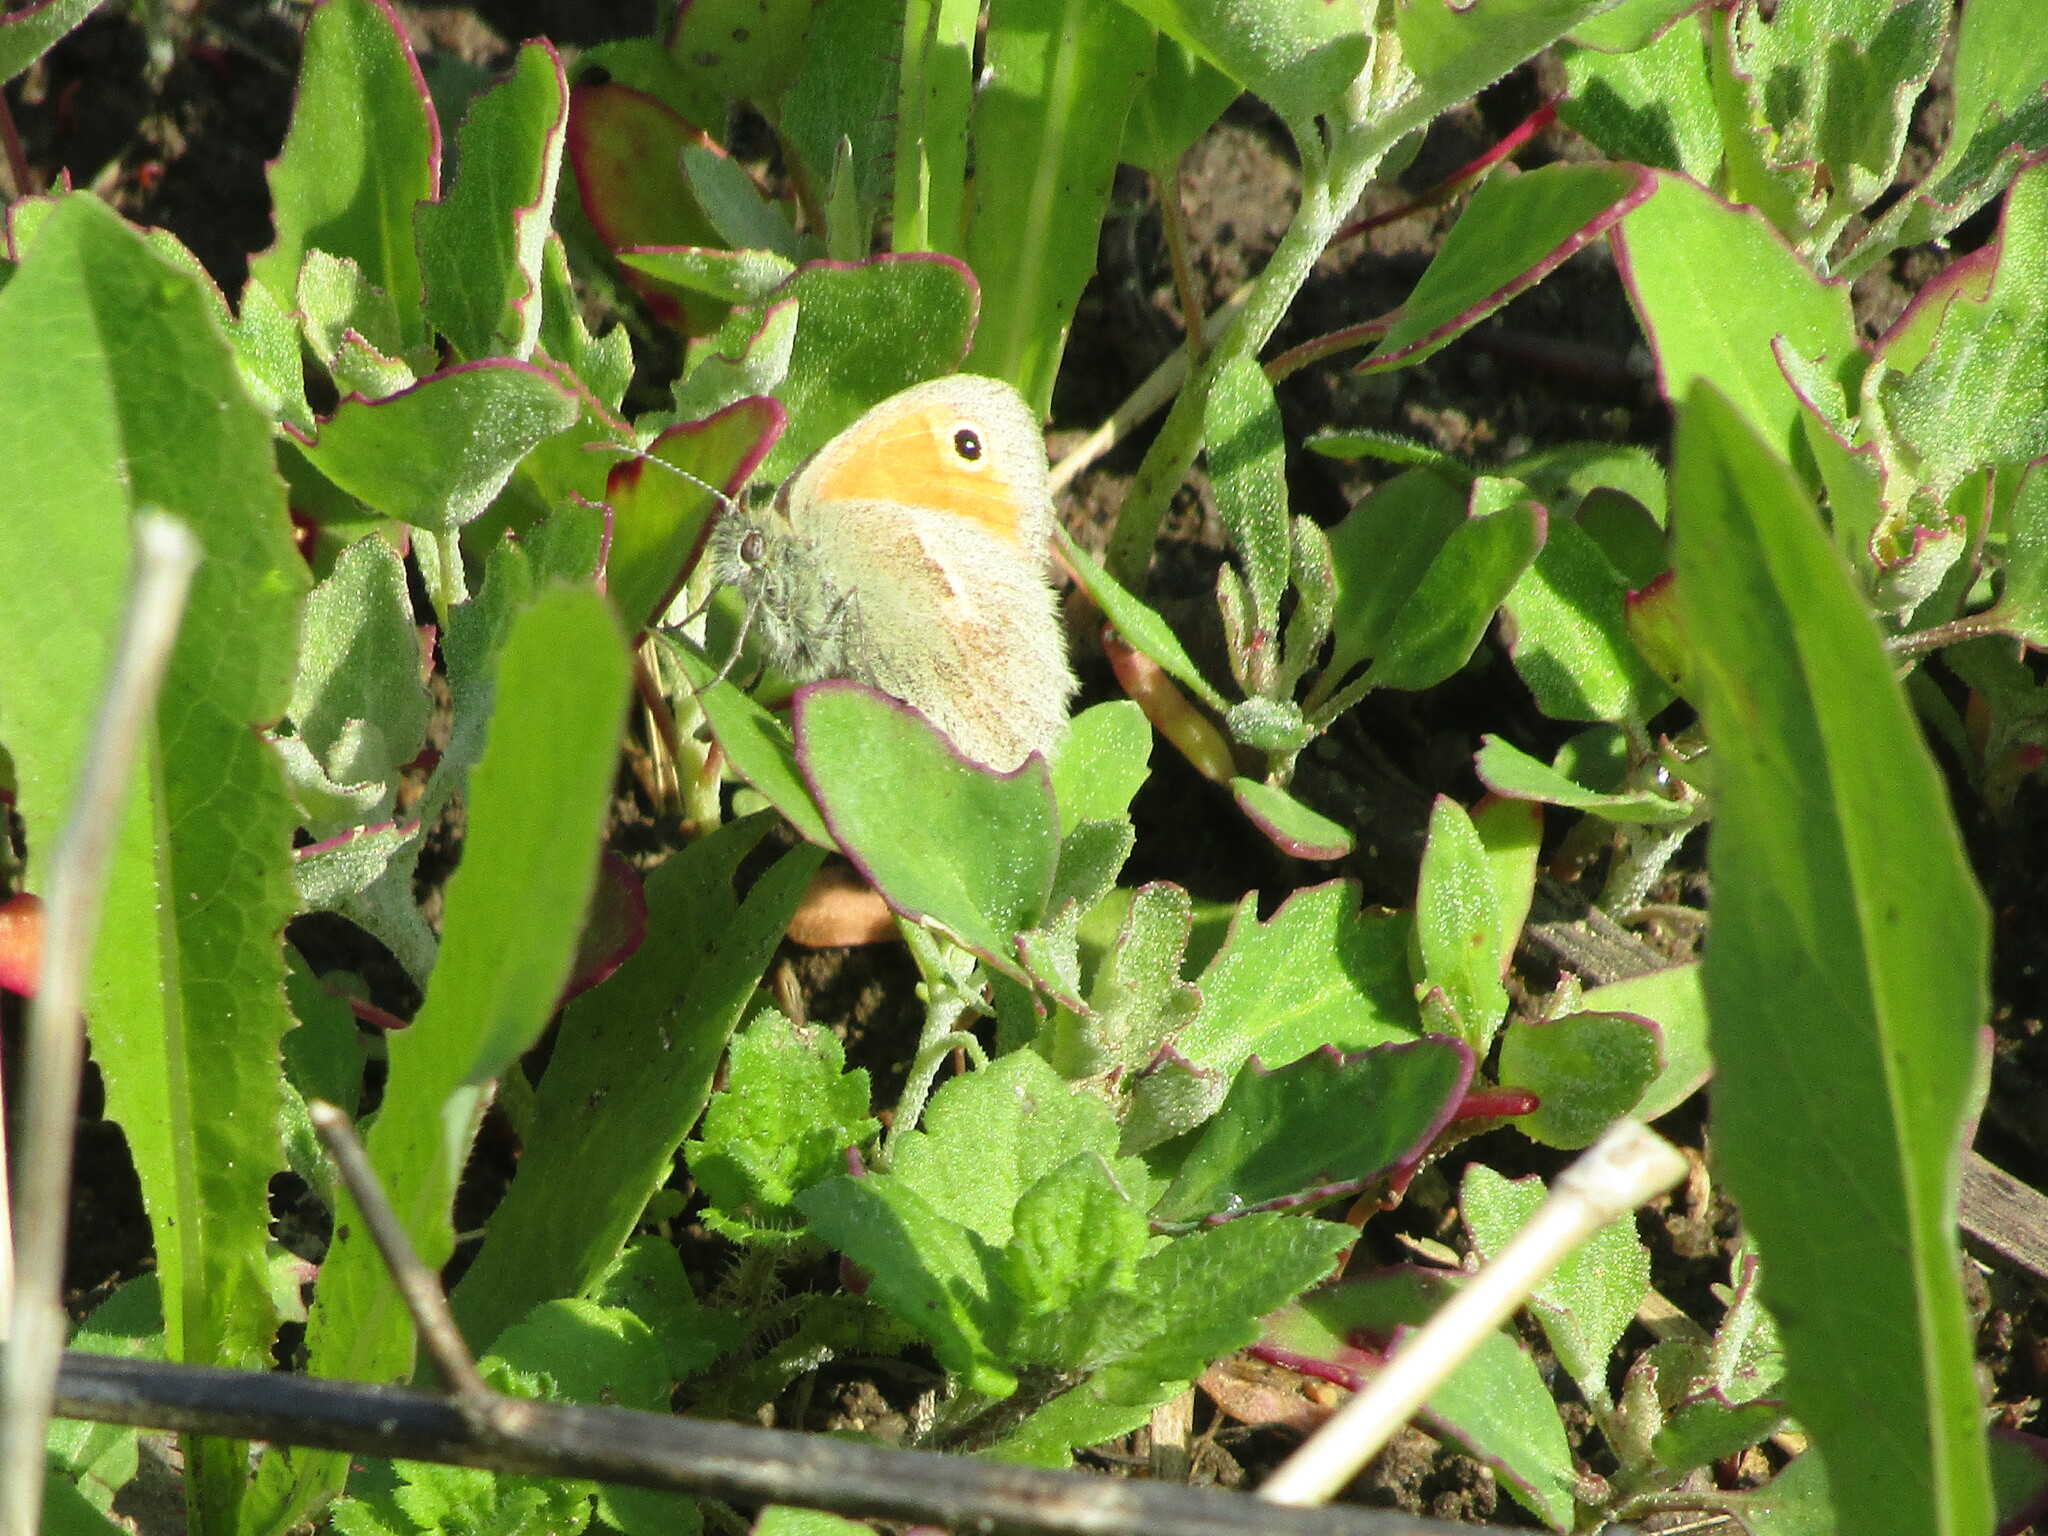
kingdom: Animalia
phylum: Arthropoda
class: Insecta
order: Lepidoptera
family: Nymphalidae
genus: Coenonympha
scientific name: Coenonympha pamphilus
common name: Small heath
